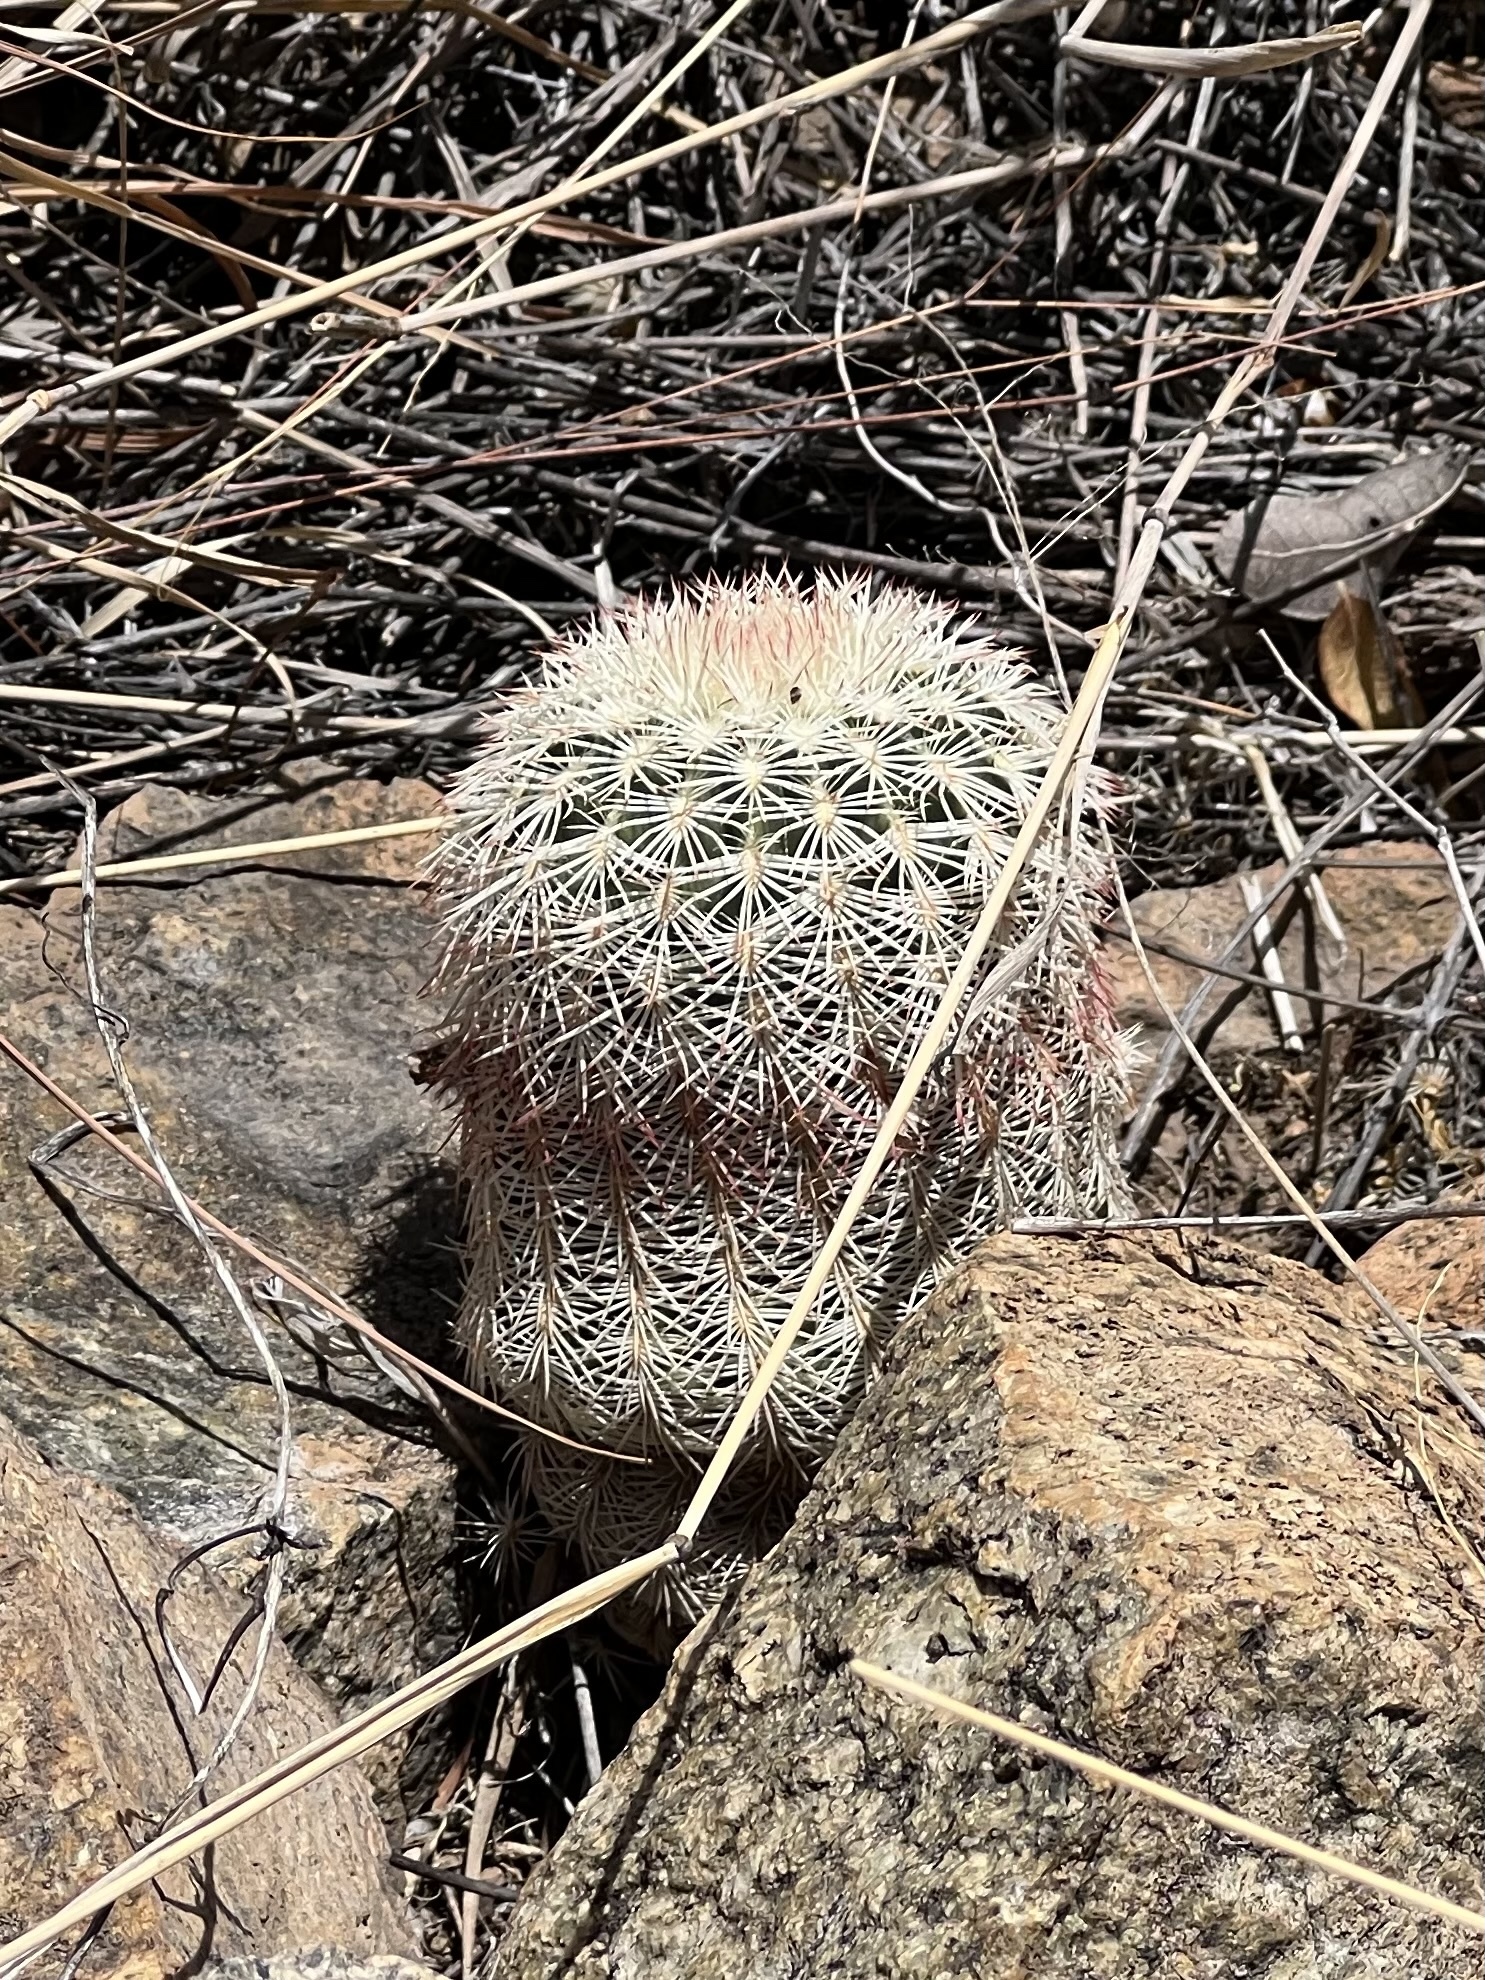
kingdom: Plantae
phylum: Tracheophyta
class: Magnoliopsida
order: Caryophyllales
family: Cactaceae
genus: Echinocereus
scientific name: Echinocereus rigidissimus
